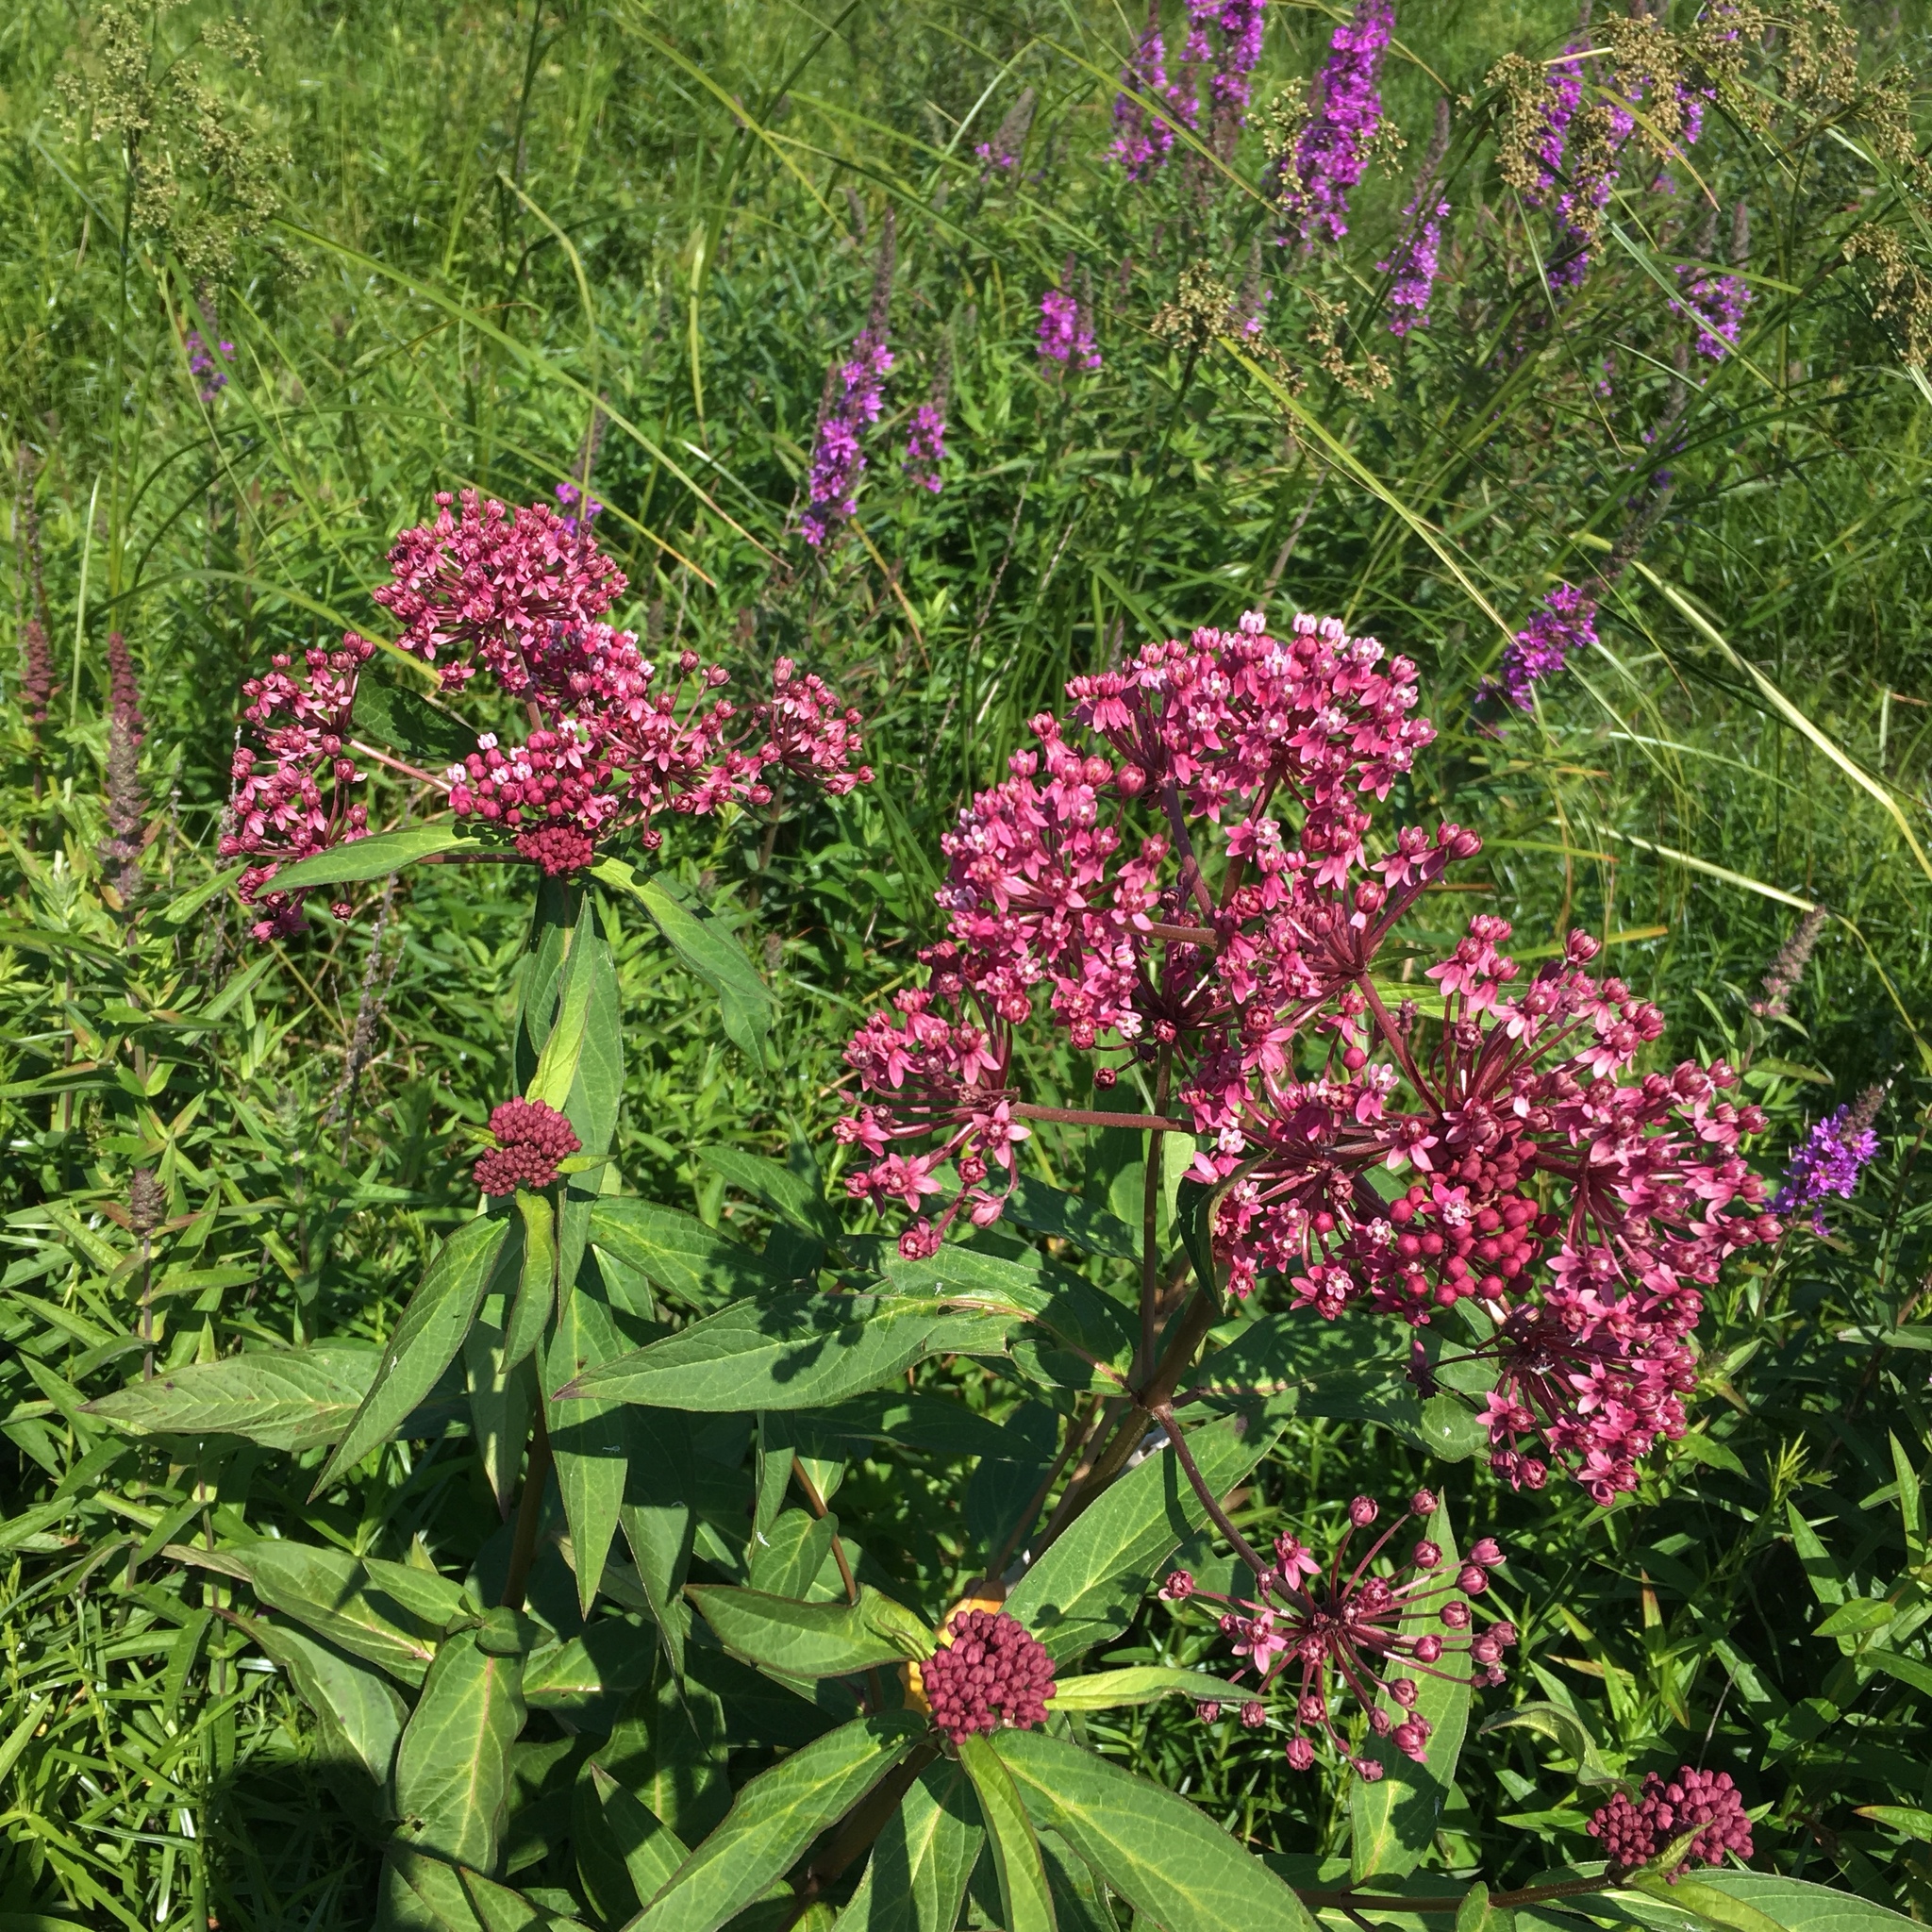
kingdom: Plantae
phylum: Tracheophyta
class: Magnoliopsida
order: Gentianales
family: Apocynaceae
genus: Asclepias
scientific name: Asclepias incarnata
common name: Swamp milkweed
